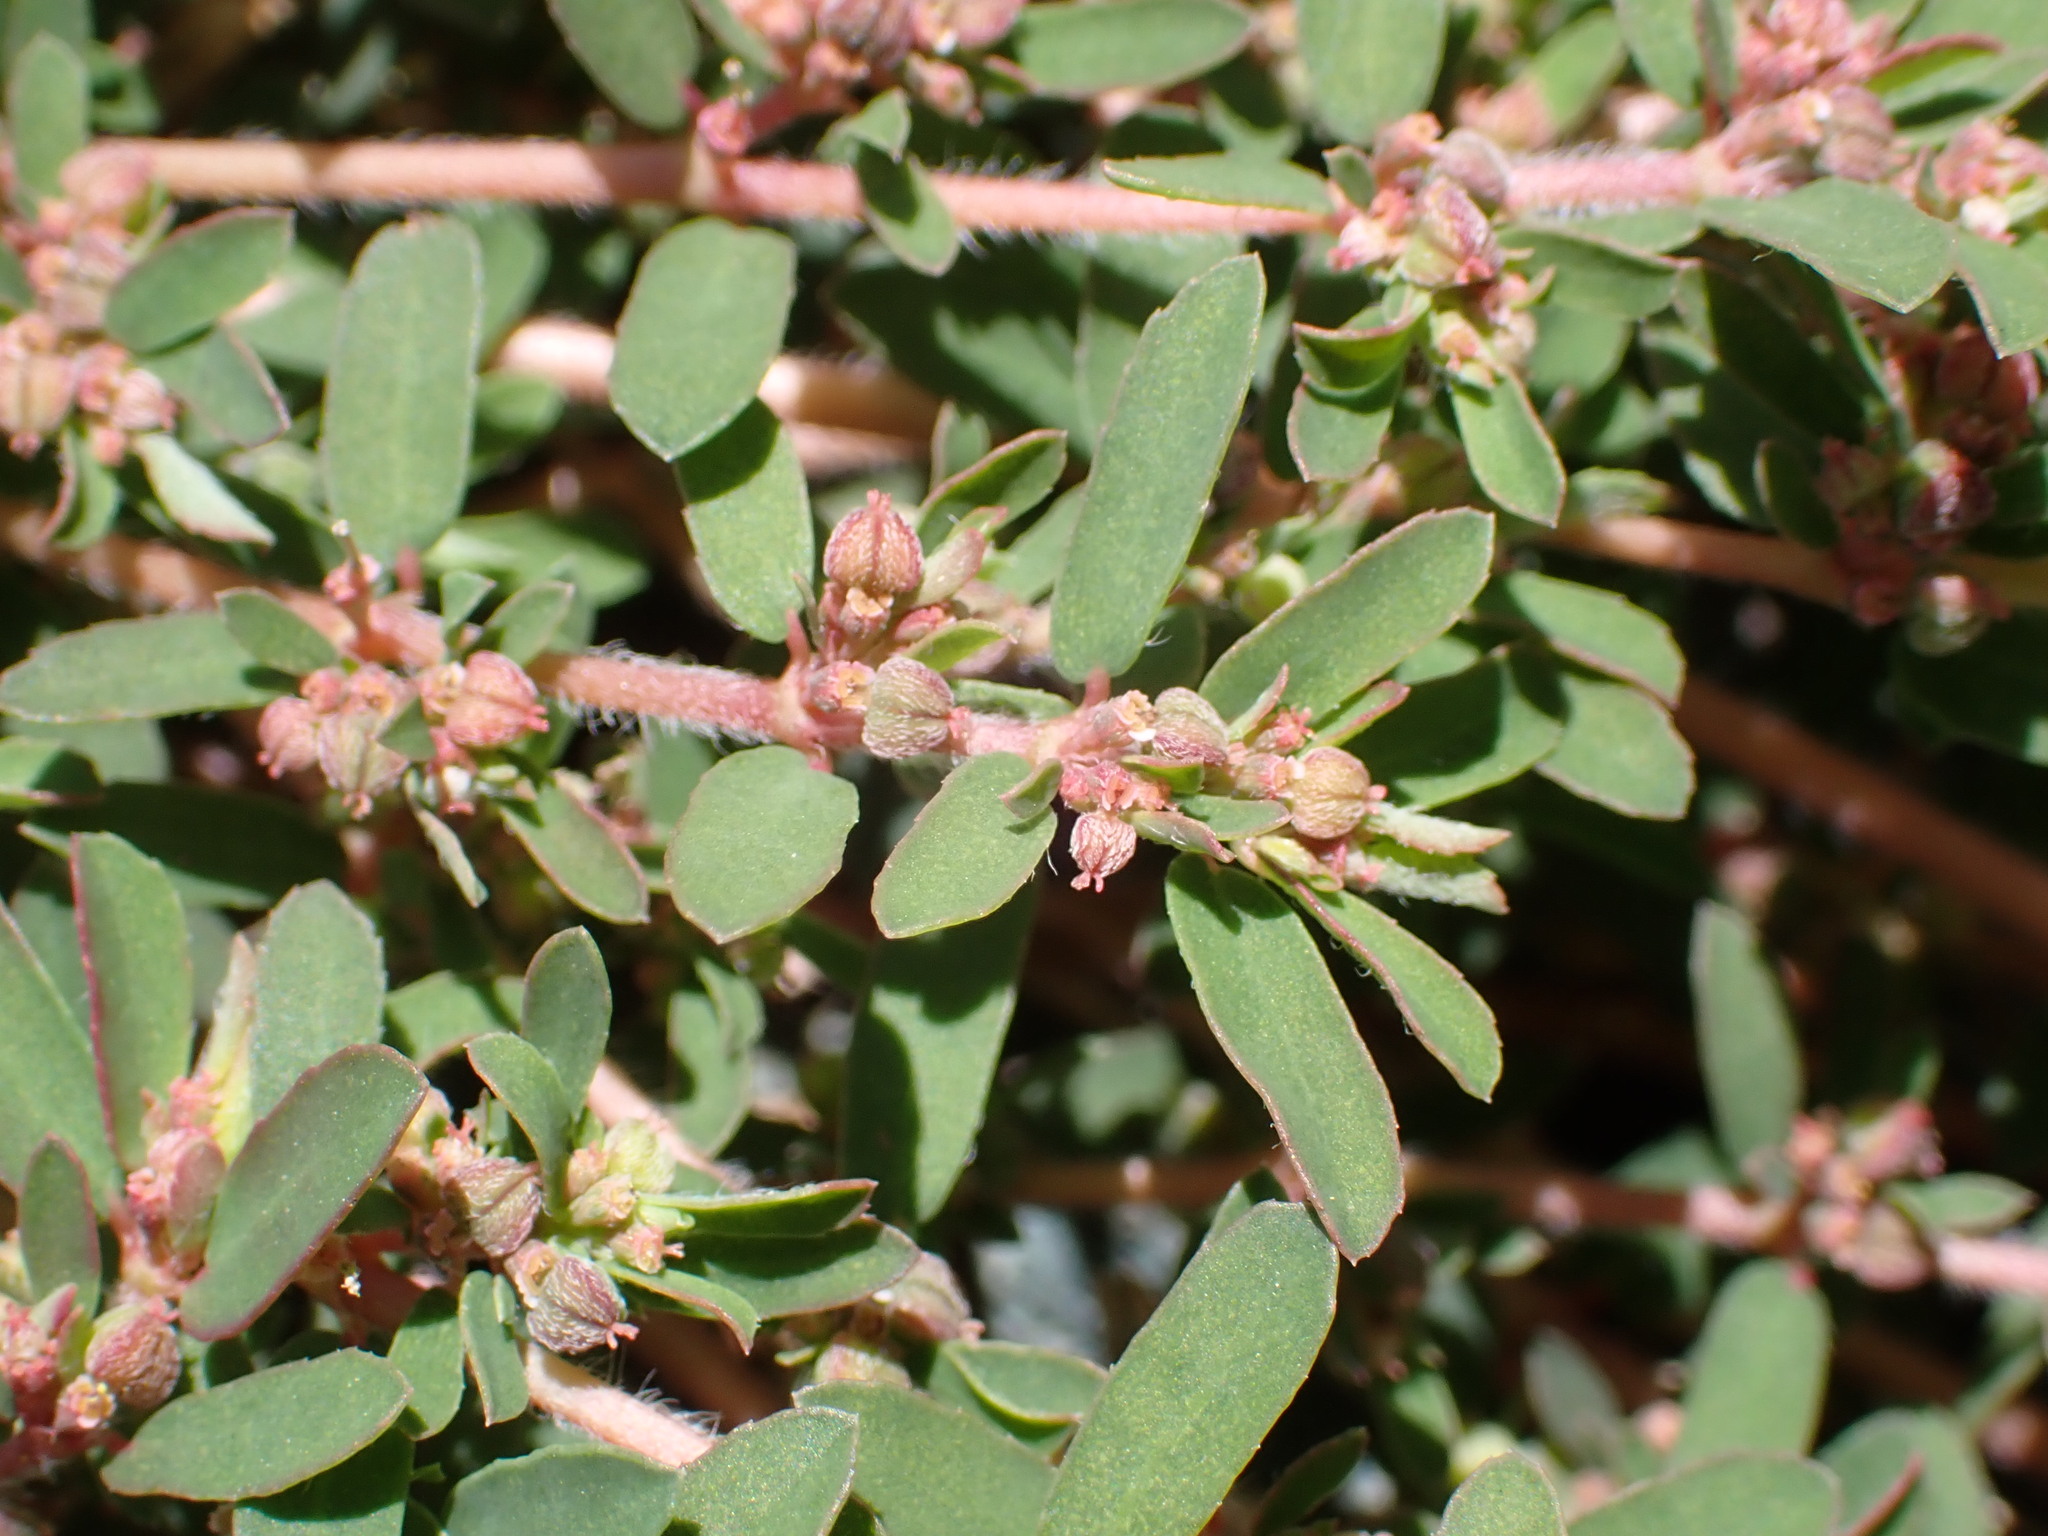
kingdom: Plantae
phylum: Tracheophyta
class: Magnoliopsida
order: Malpighiales
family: Euphorbiaceae
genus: Euphorbia
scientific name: Euphorbia maculata
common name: Spotted spurge
